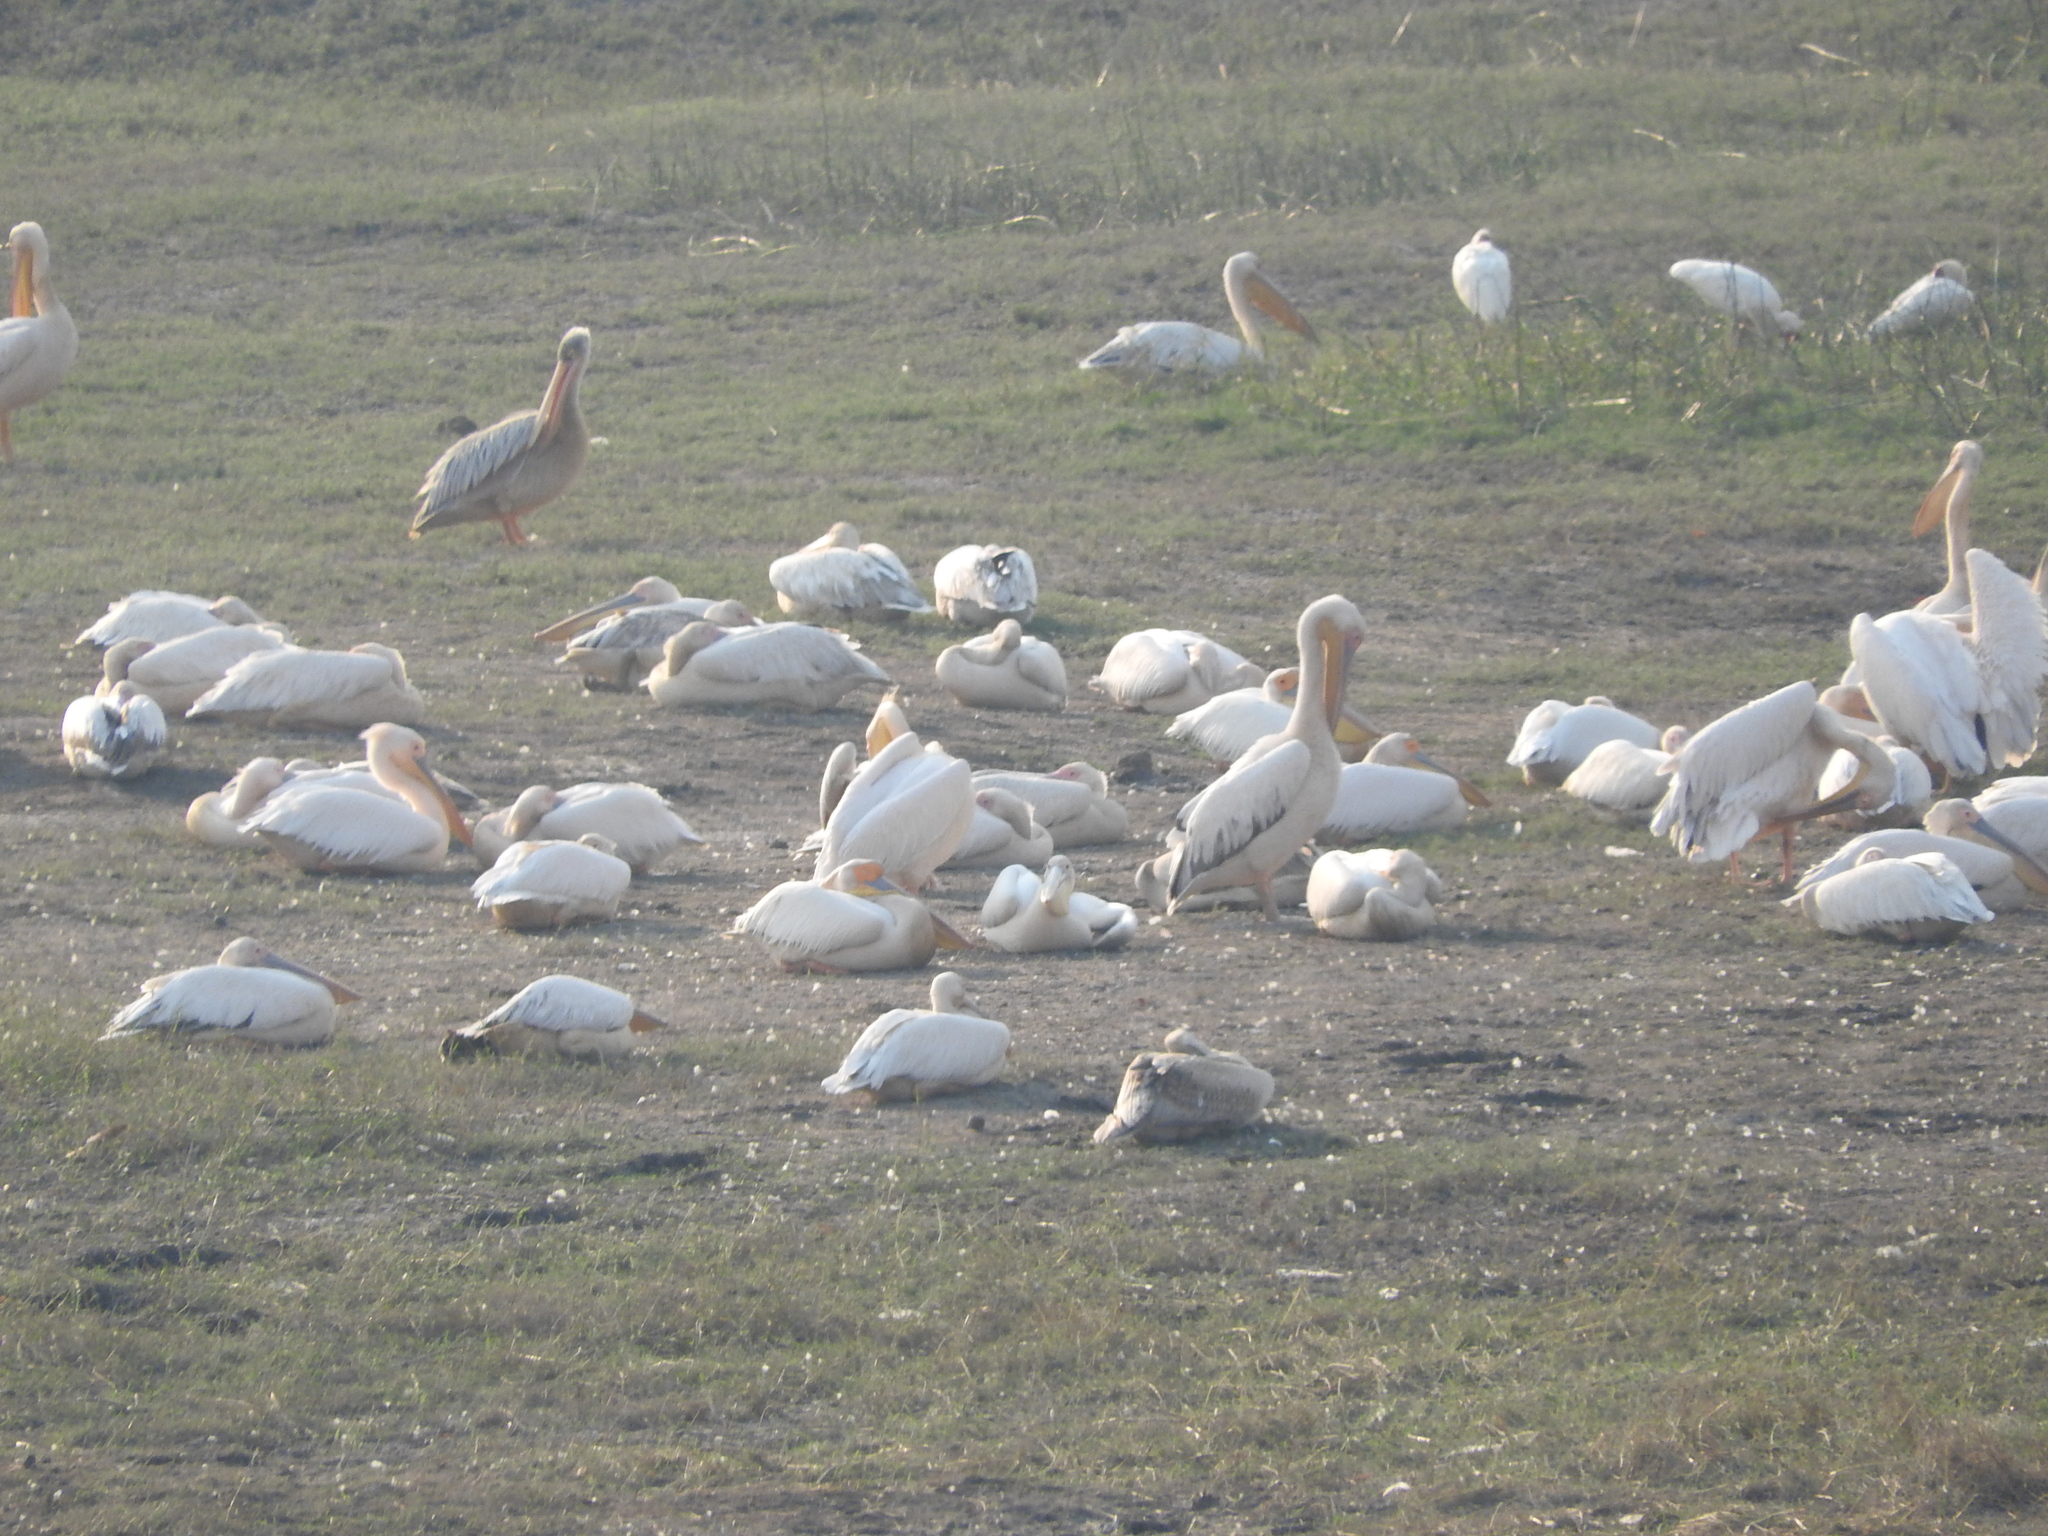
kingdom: Animalia
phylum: Chordata
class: Aves
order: Pelecaniformes
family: Pelecanidae
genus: Pelecanus
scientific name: Pelecanus onocrotalus
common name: Great white pelican
